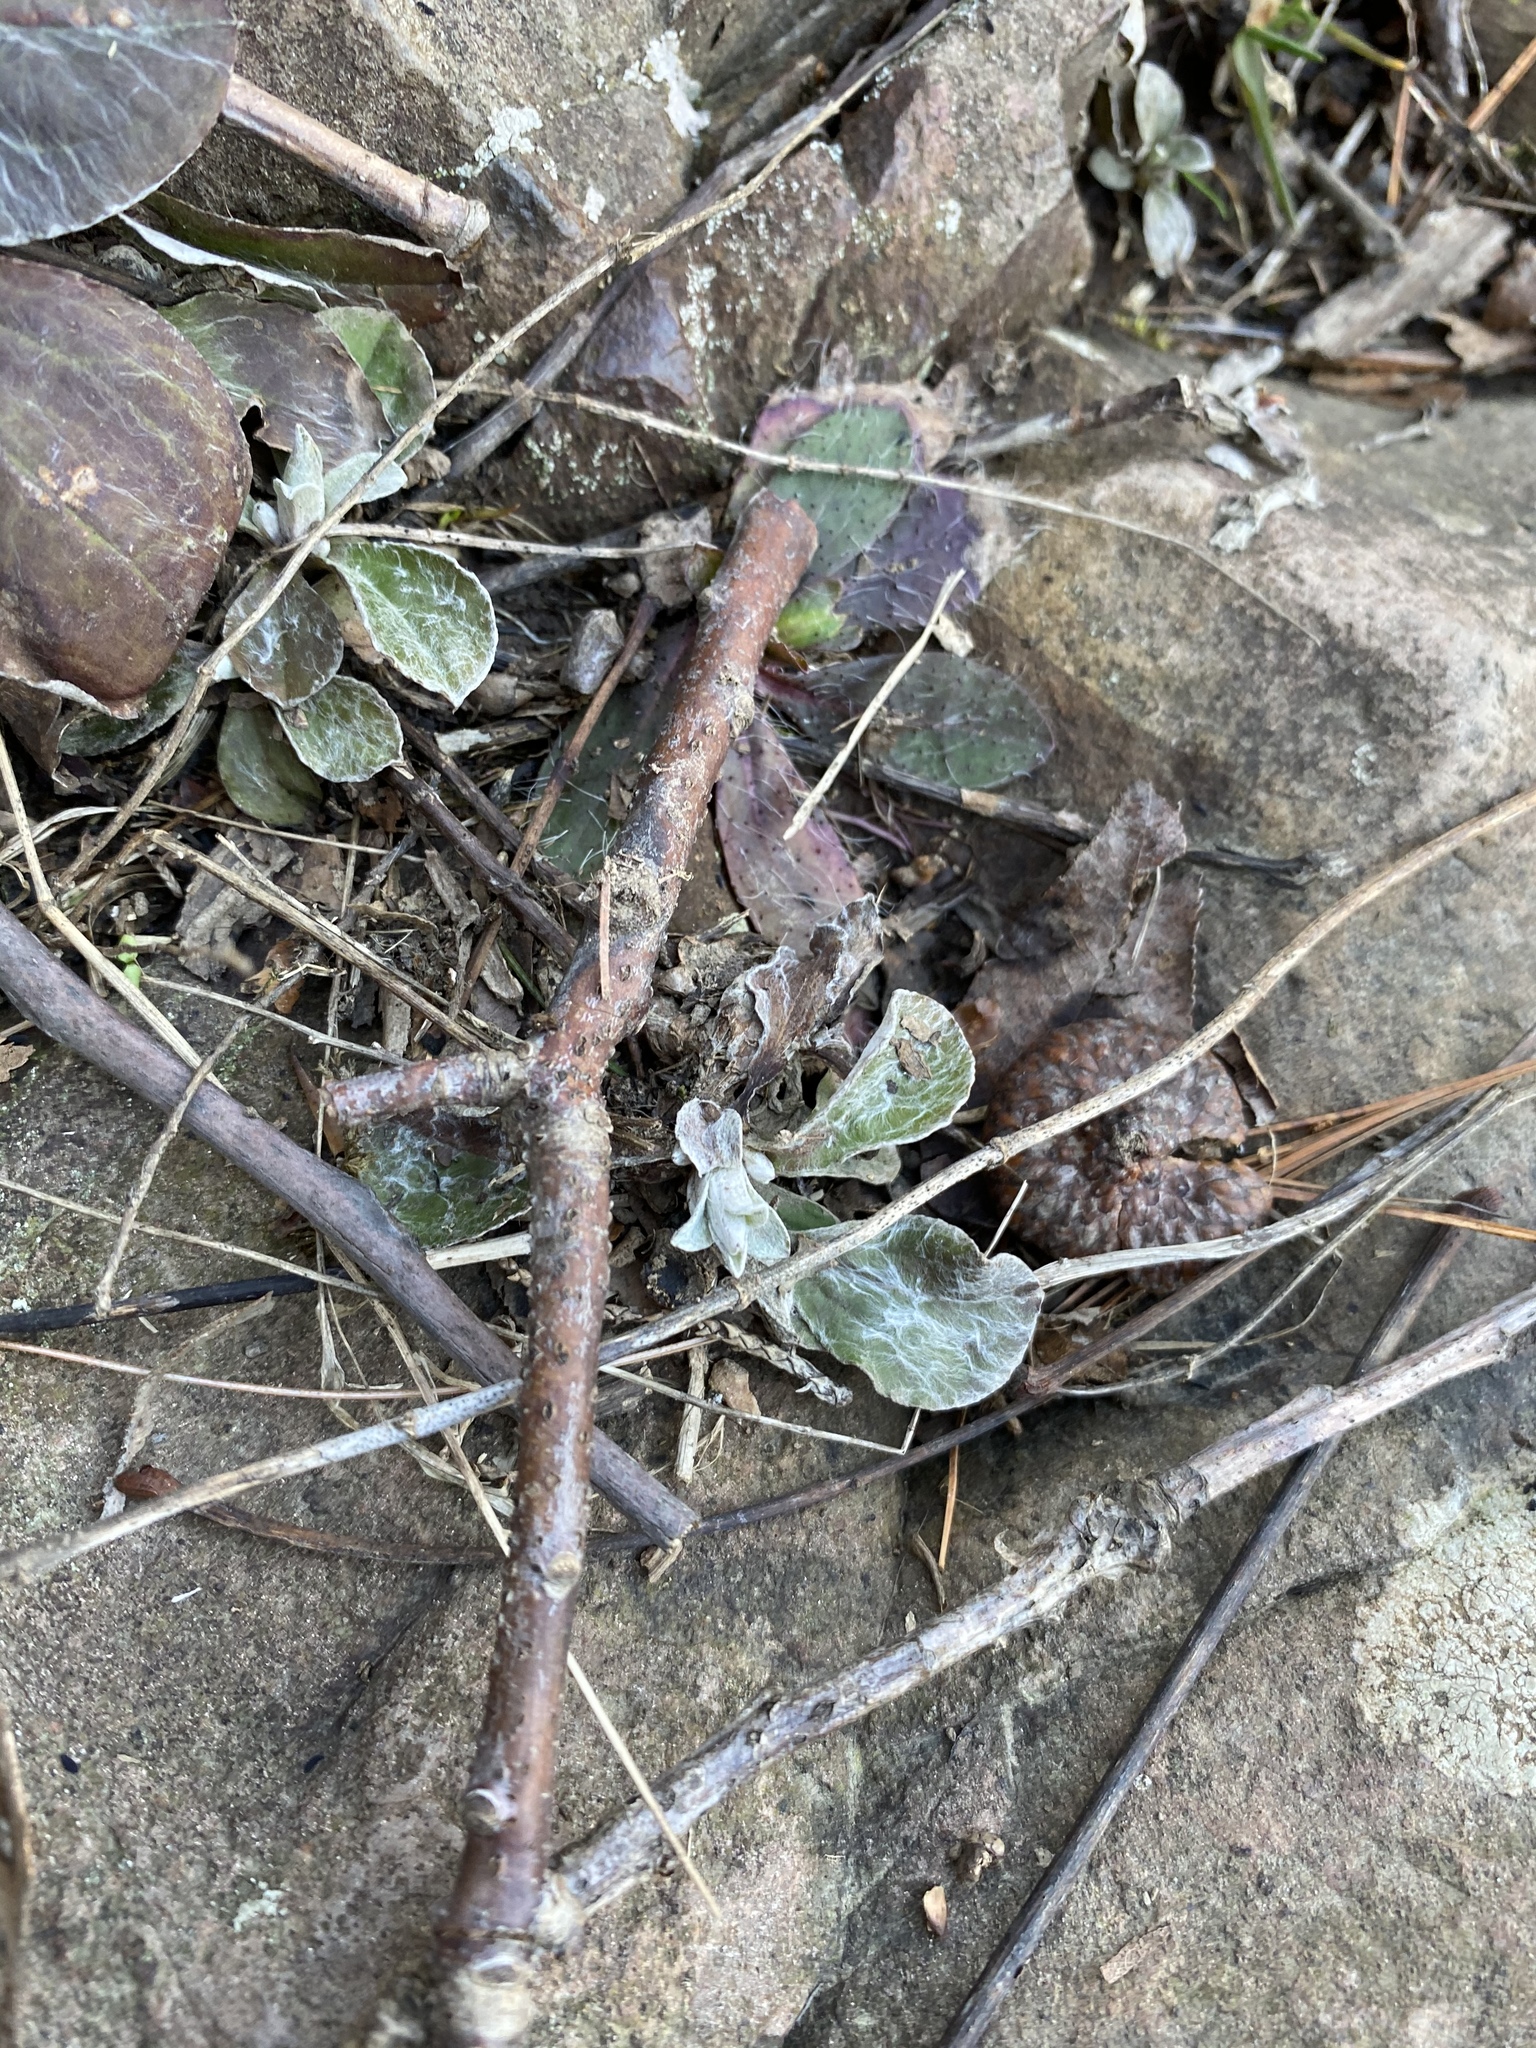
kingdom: Plantae
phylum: Tracheophyta
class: Magnoliopsida
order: Asterales
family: Asteraceae
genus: Antennaria
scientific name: Antennaria parlinii
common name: Parlin's pussytoes
